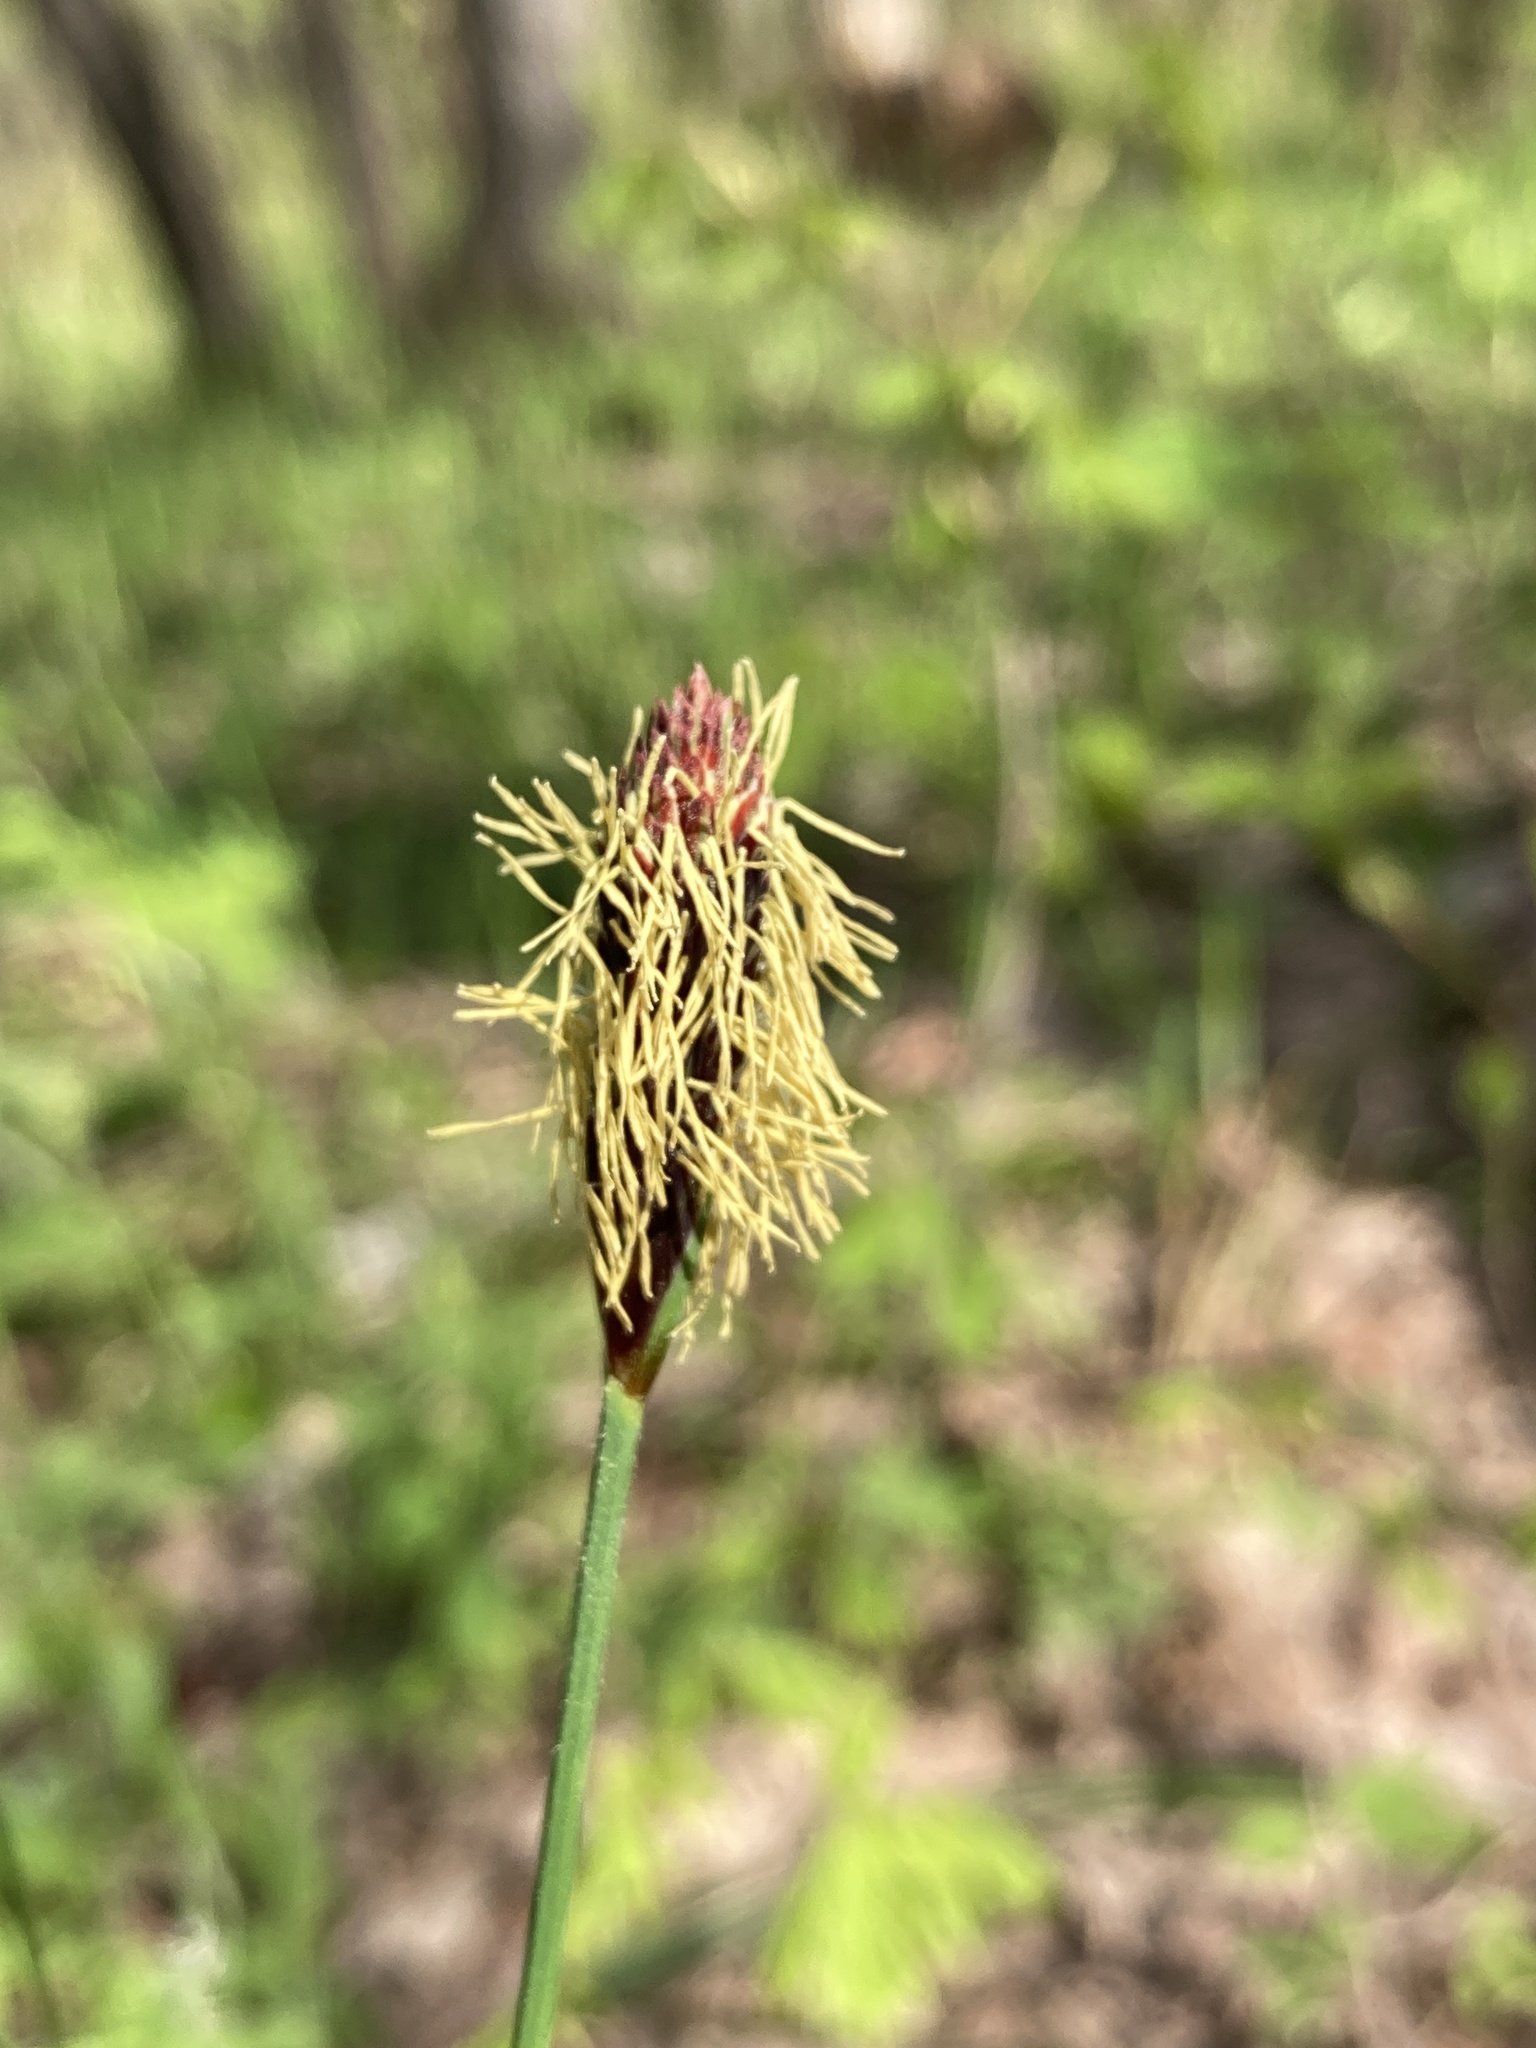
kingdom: Plantae
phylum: Tracheophyta
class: Liliopsida
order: Poales
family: Cyperaceae
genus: Carex
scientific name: Carex pilosa
